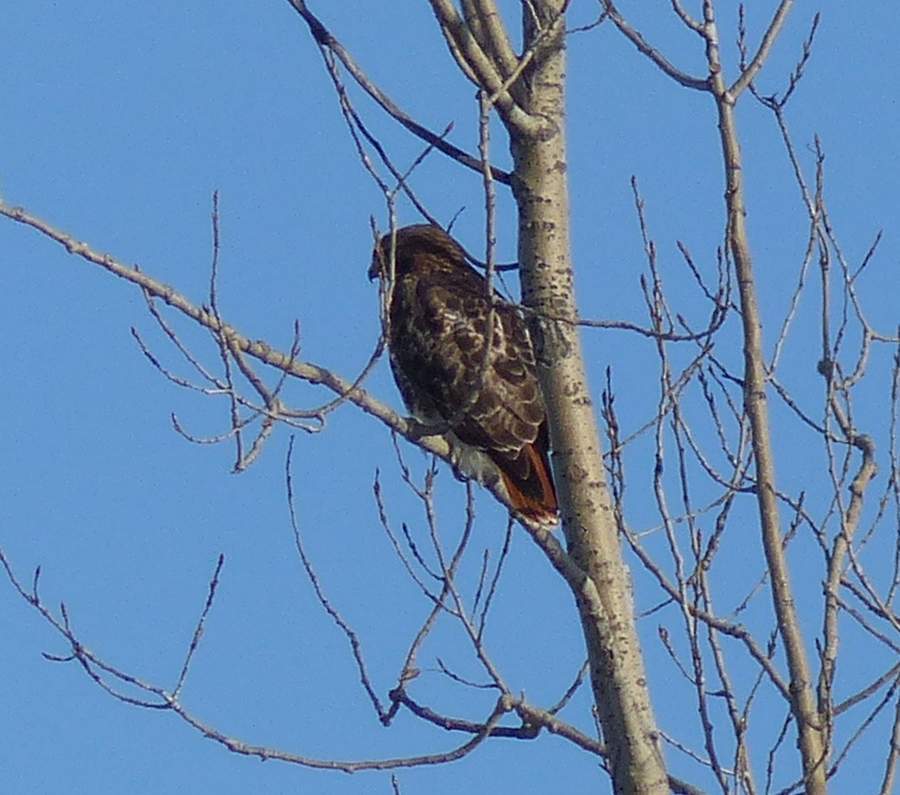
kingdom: Animalia
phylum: Chordata
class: Aves
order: Accipitriformes
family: Accipitridae
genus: Buteo
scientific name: Buteo jamaicensis
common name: Red-tailed hawk
